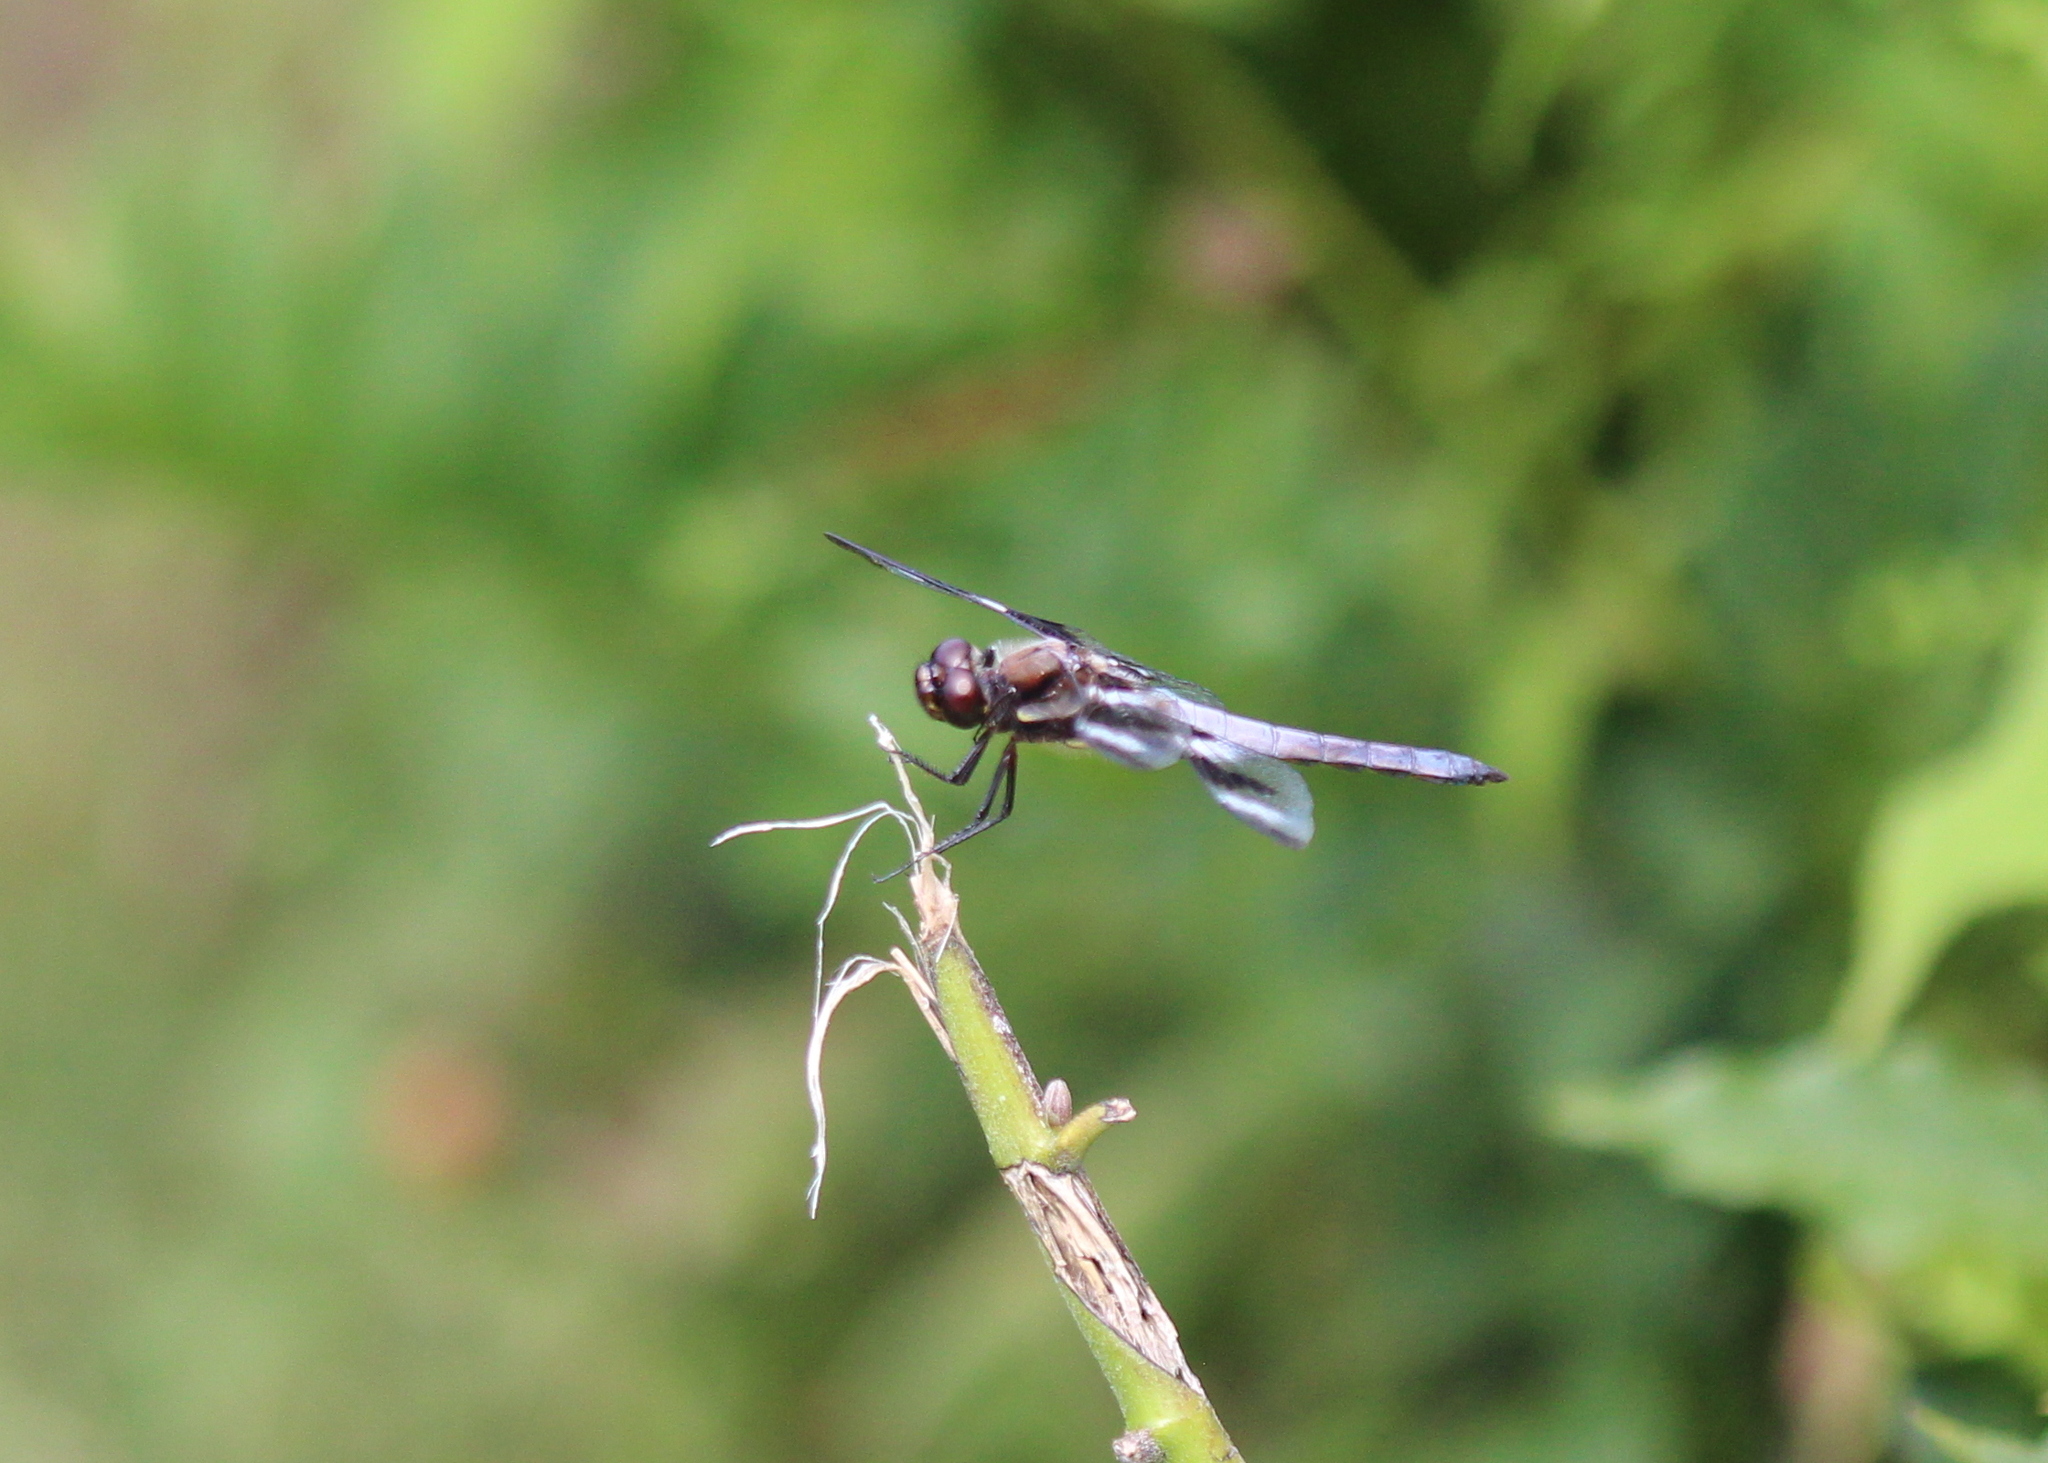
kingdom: Animalia
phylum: Arthropoda
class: Insecta
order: Odonata
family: Libellulidae
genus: Libellula
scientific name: Libellula pulchella
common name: Twelve-spotted skimmer
